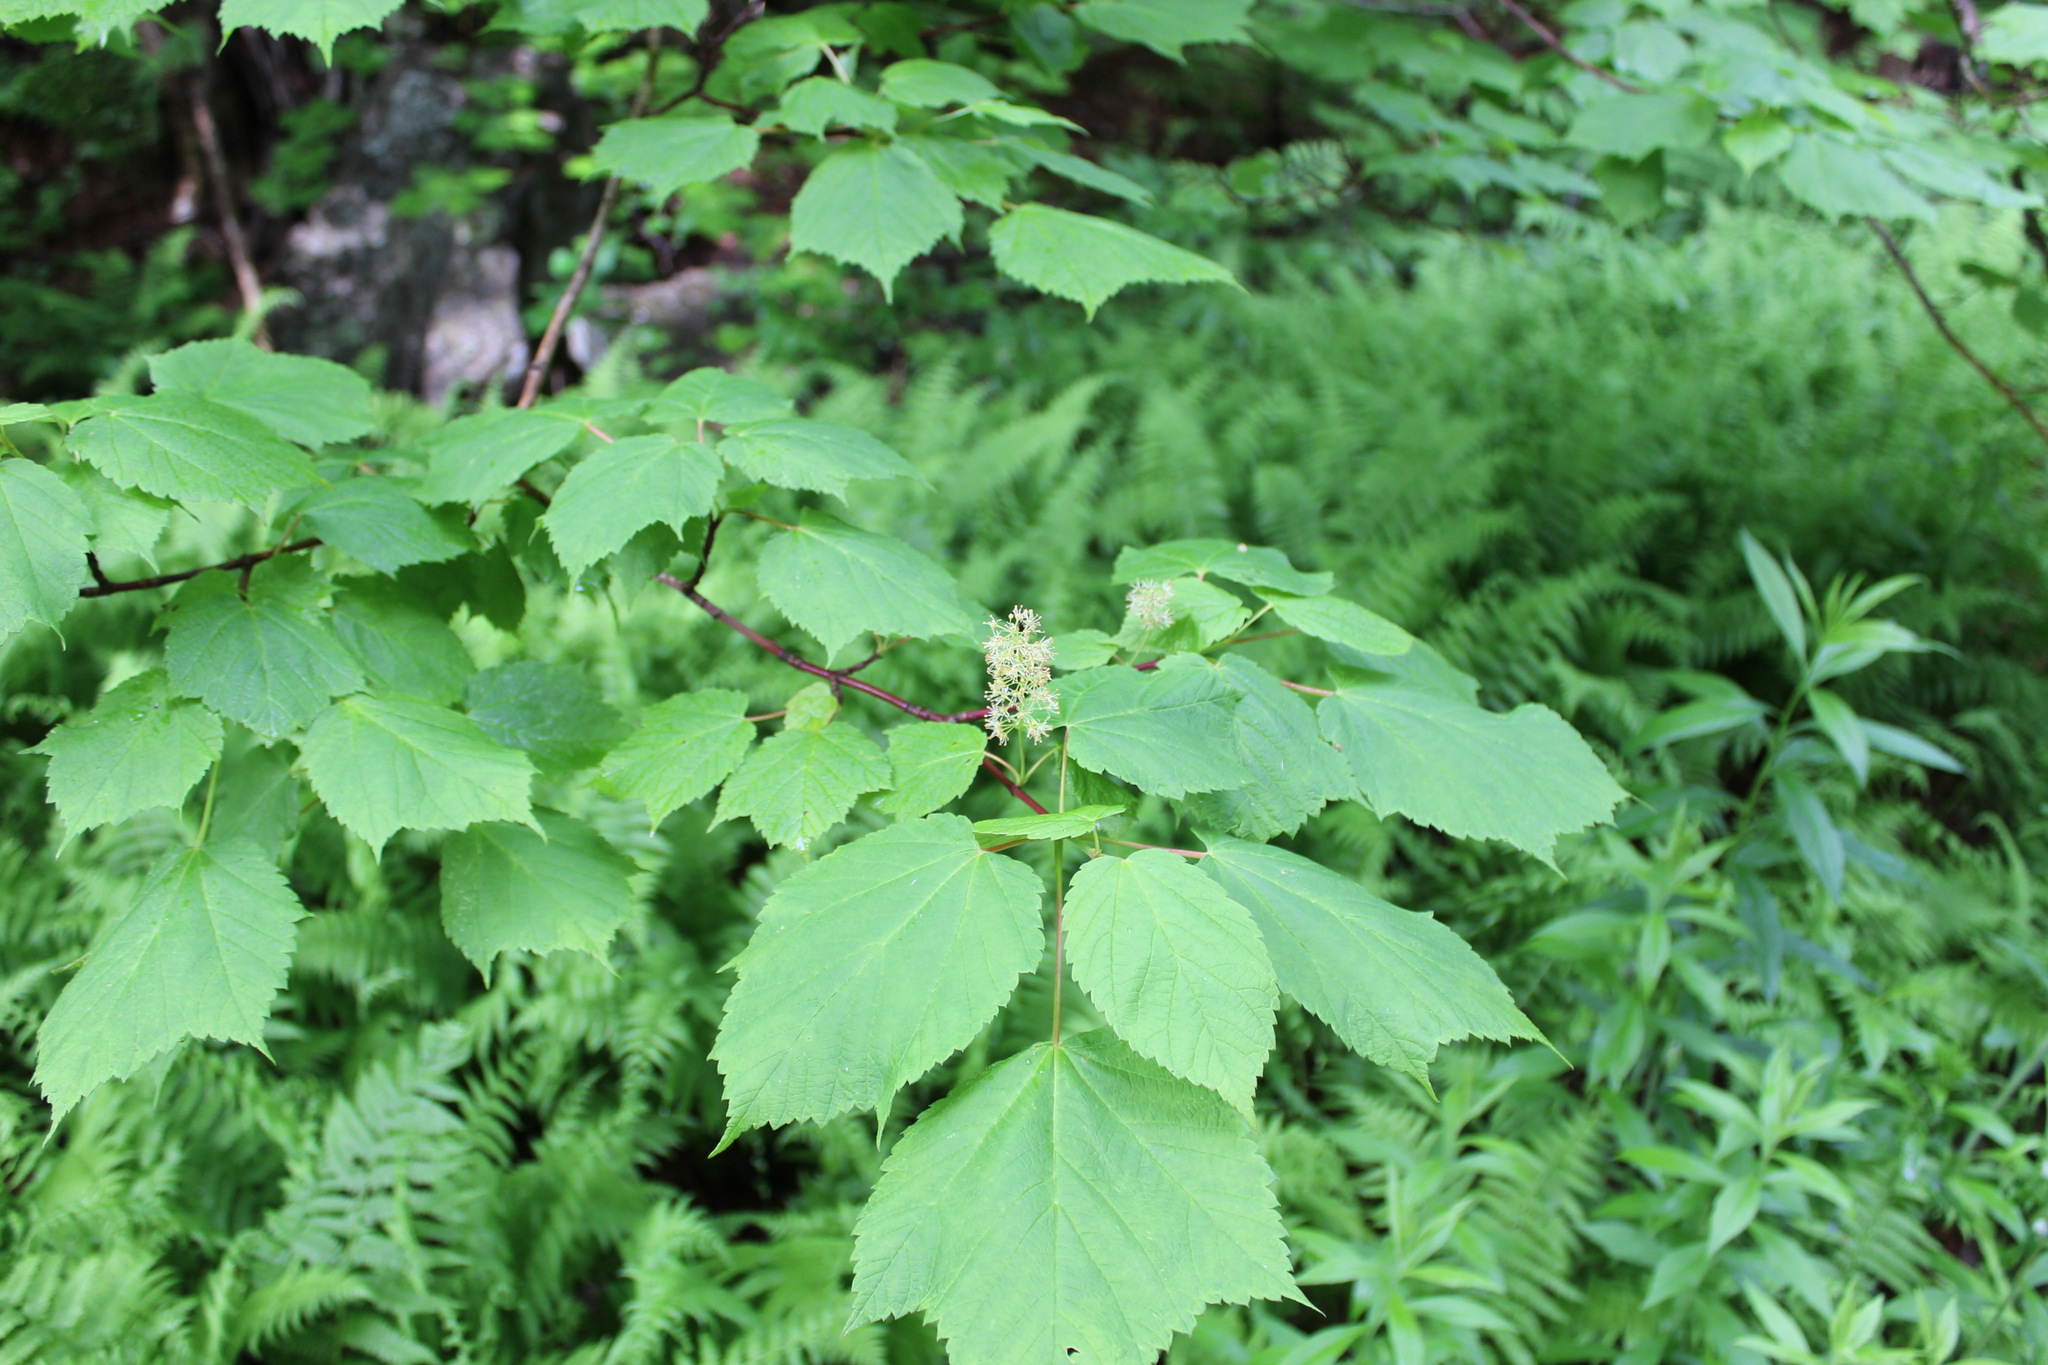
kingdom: Plantae
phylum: Tracheophyta
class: Magnoliopsida
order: Sapindales
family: Sapindaceae
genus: Acer
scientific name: Acer spicatum
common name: Mountain maple
